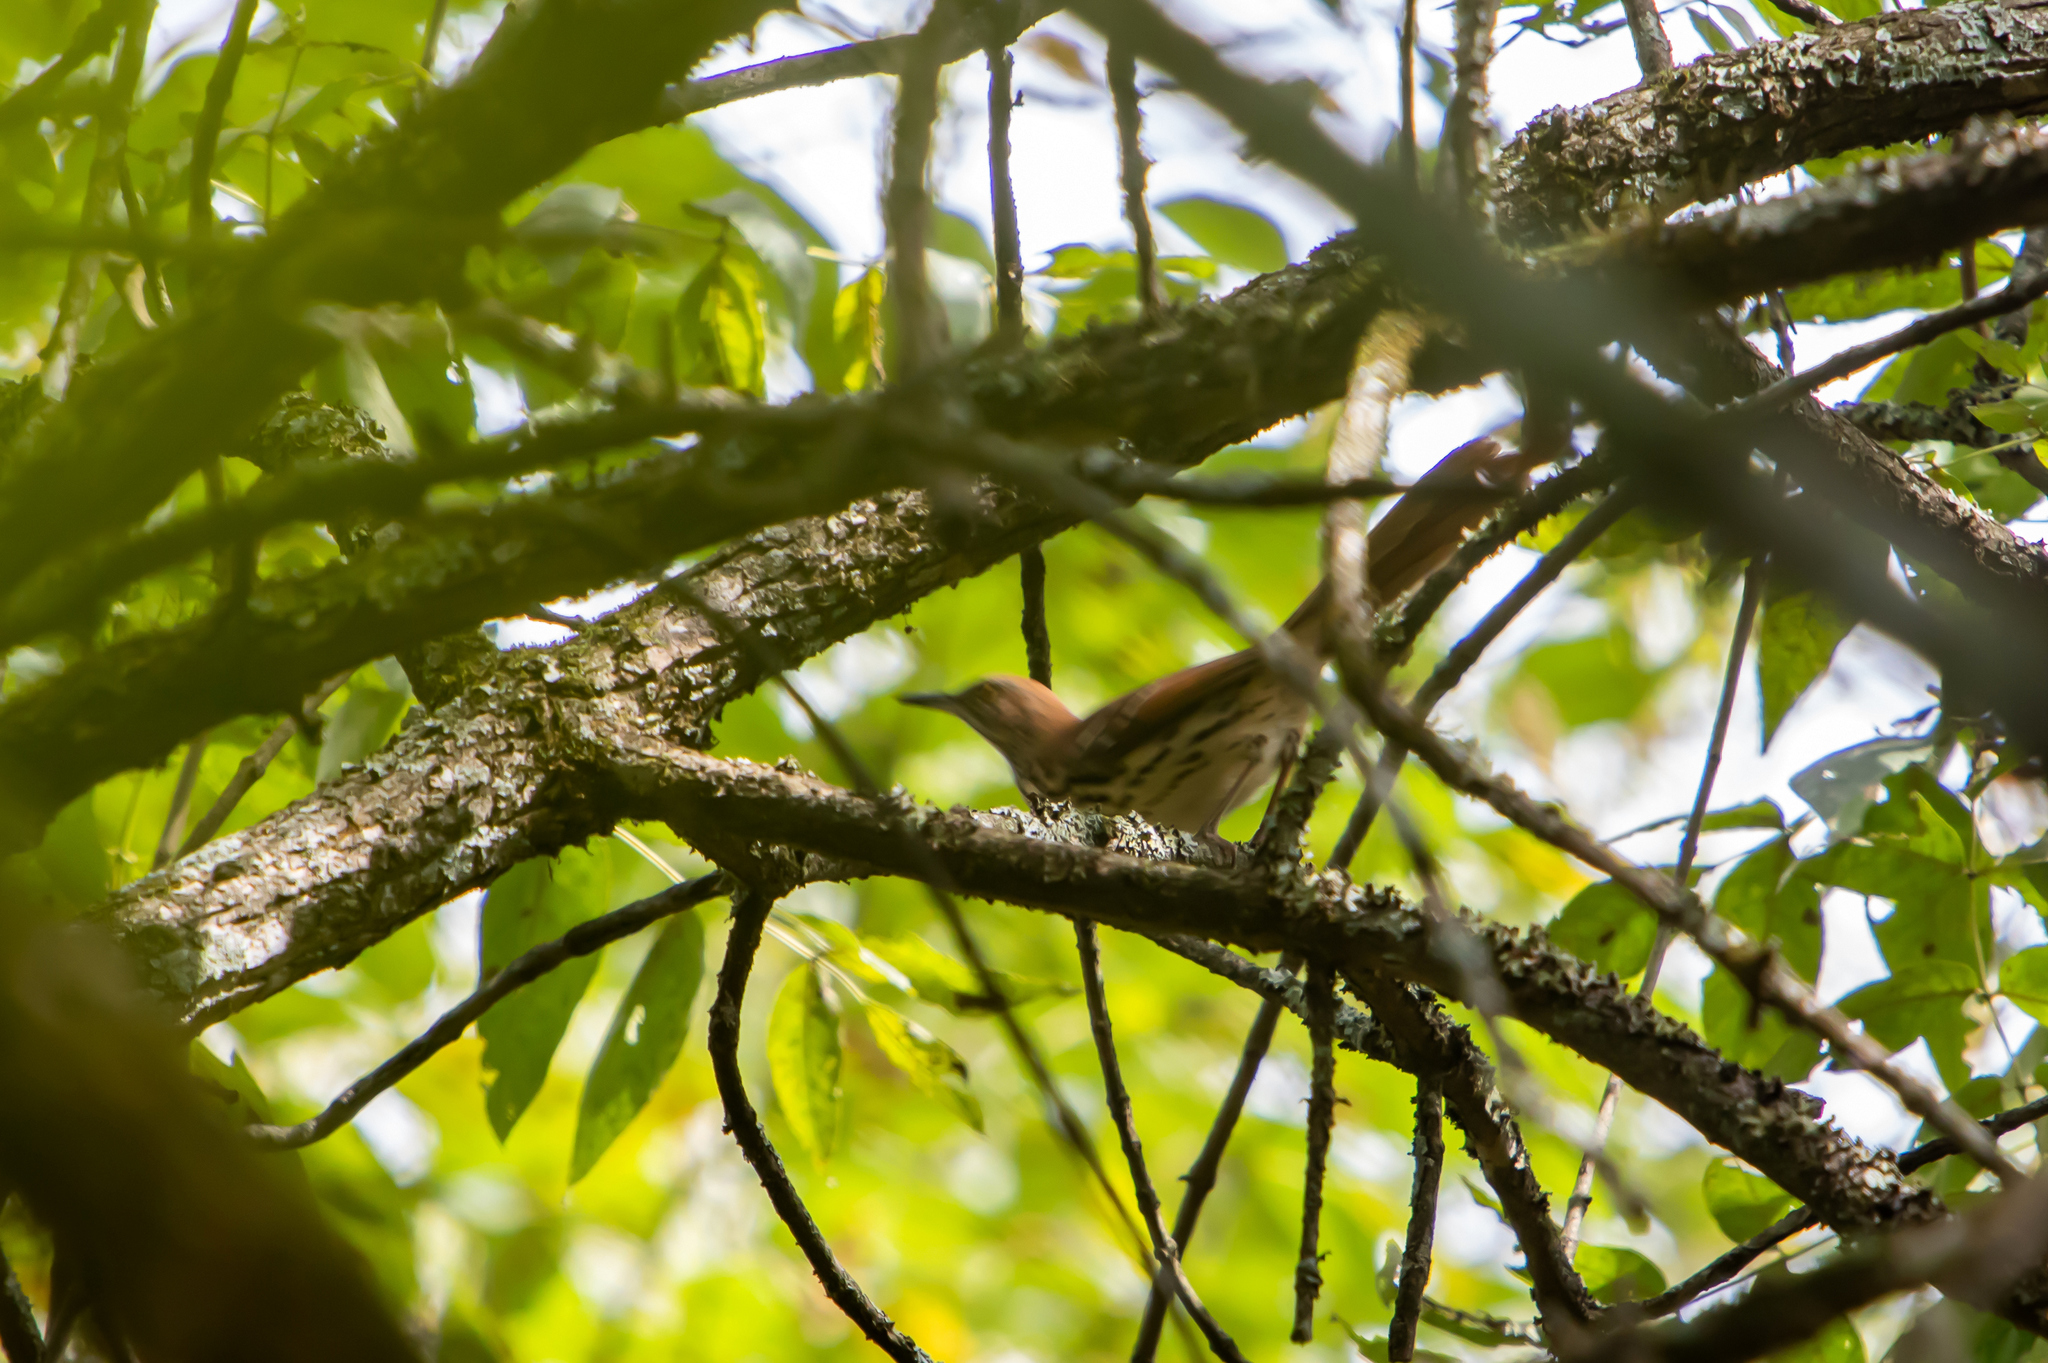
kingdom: Animalia
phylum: Chordata
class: Aves
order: Passeriformes
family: Mimidae
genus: Toxostoma
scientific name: Toxostoma rufum
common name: Brown thrasher
